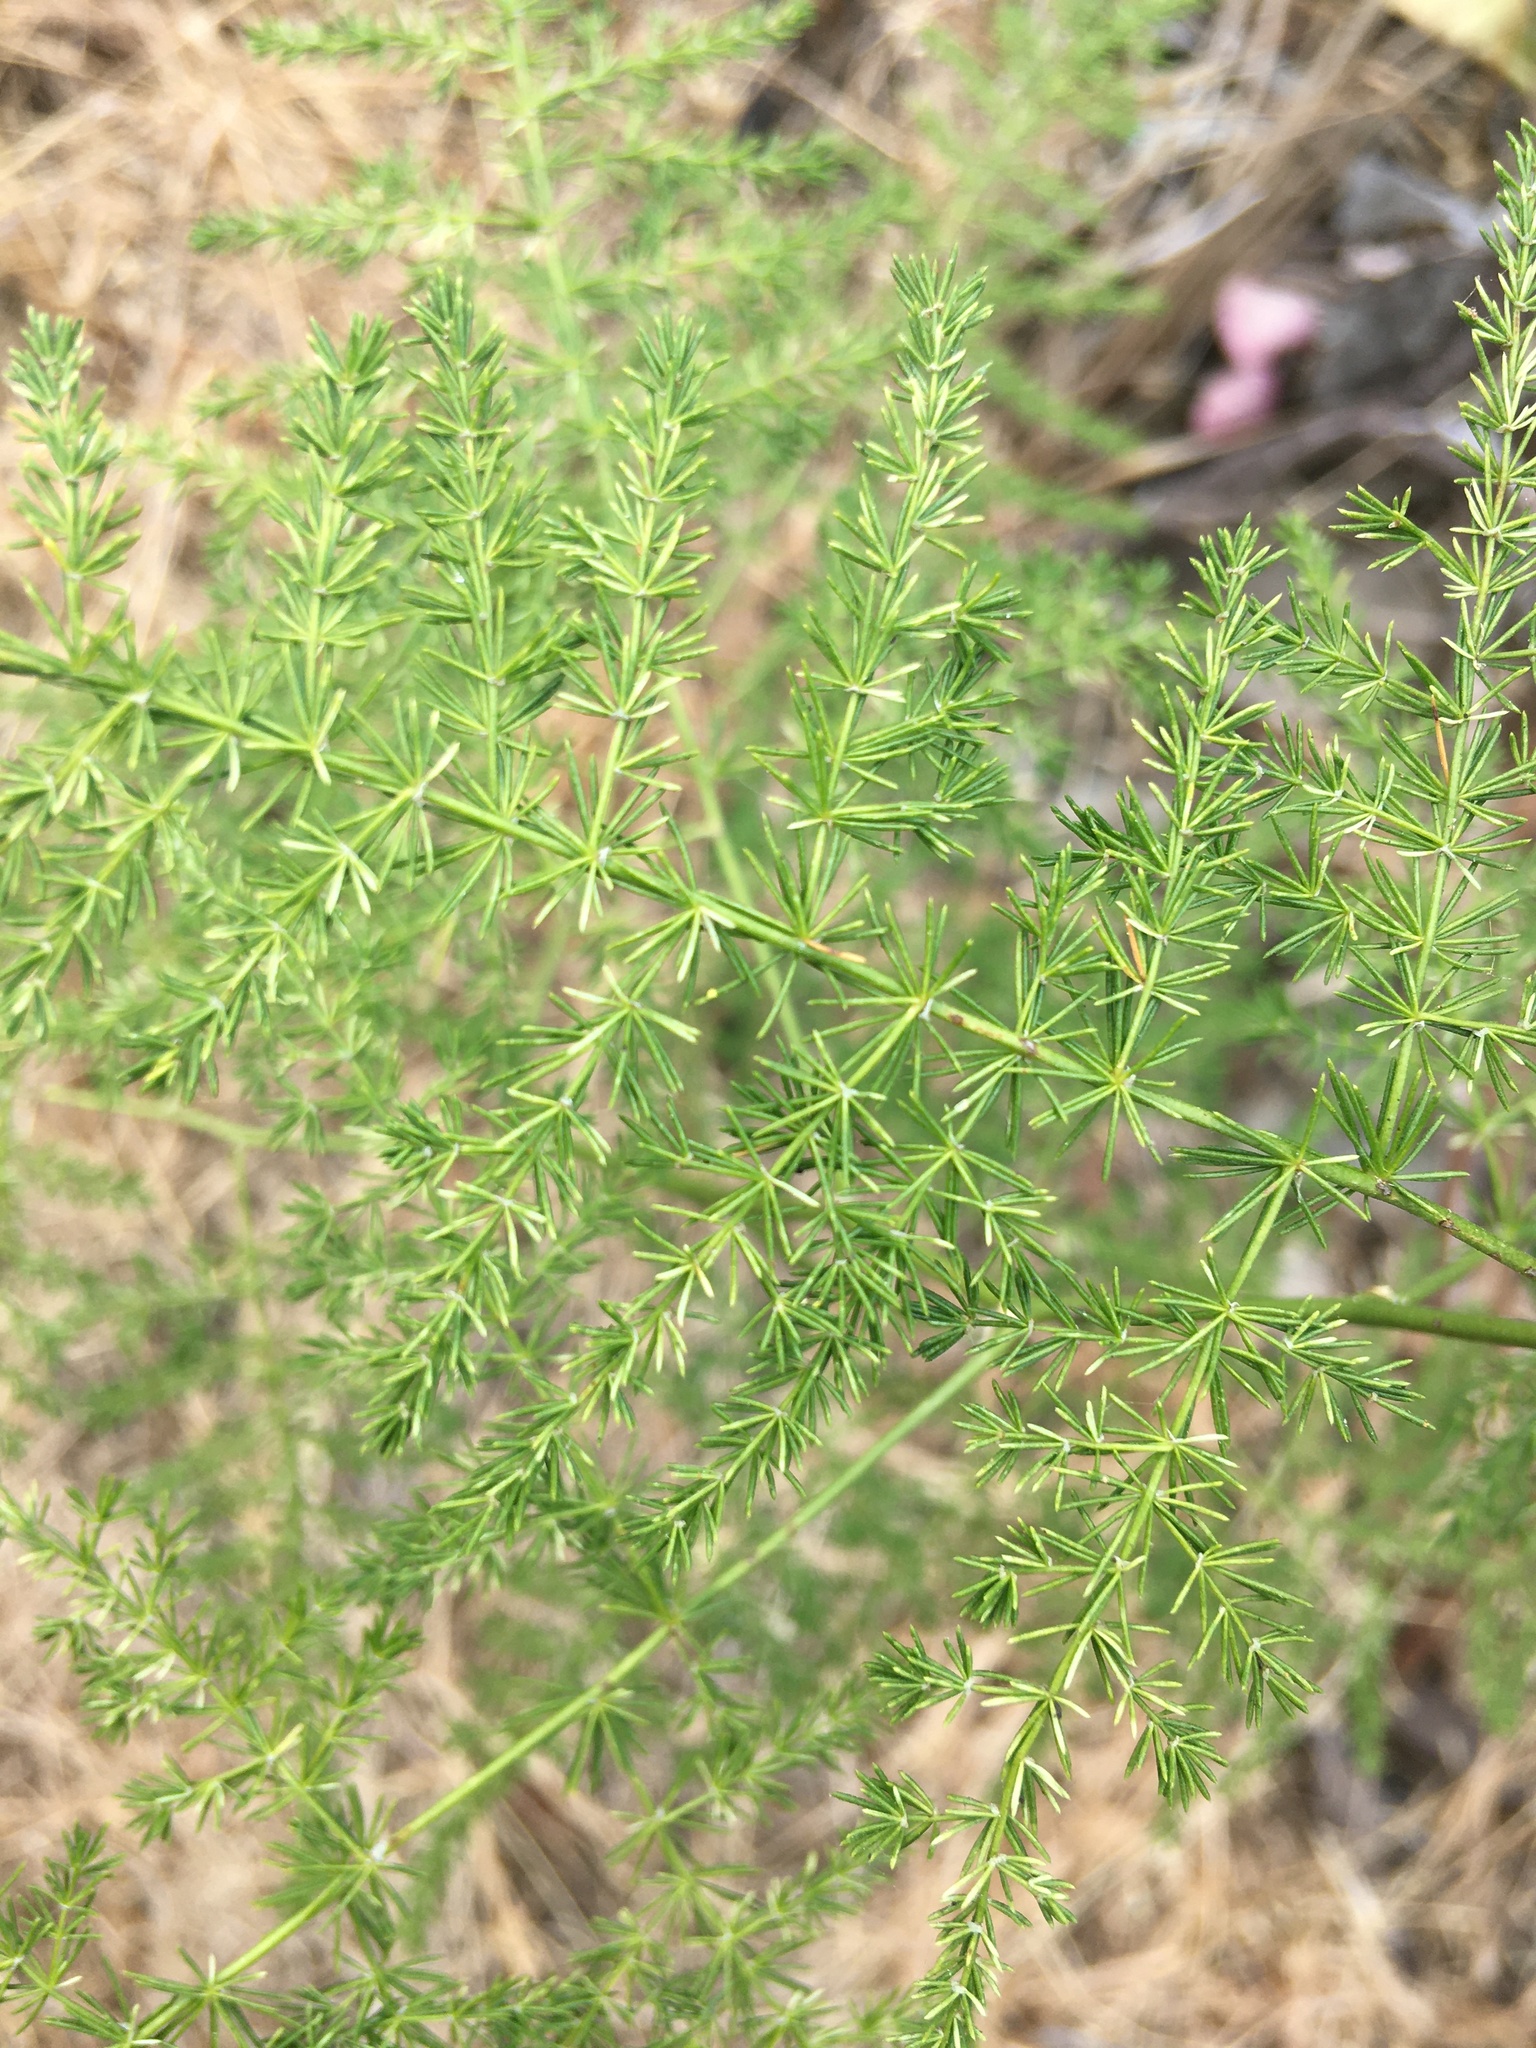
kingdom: Plantae
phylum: Tracheophyta
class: Liliopsida
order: Asparagales
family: Asparagaceae
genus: Asparagus
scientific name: Asparagus setaceus
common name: Common asparagus fern
